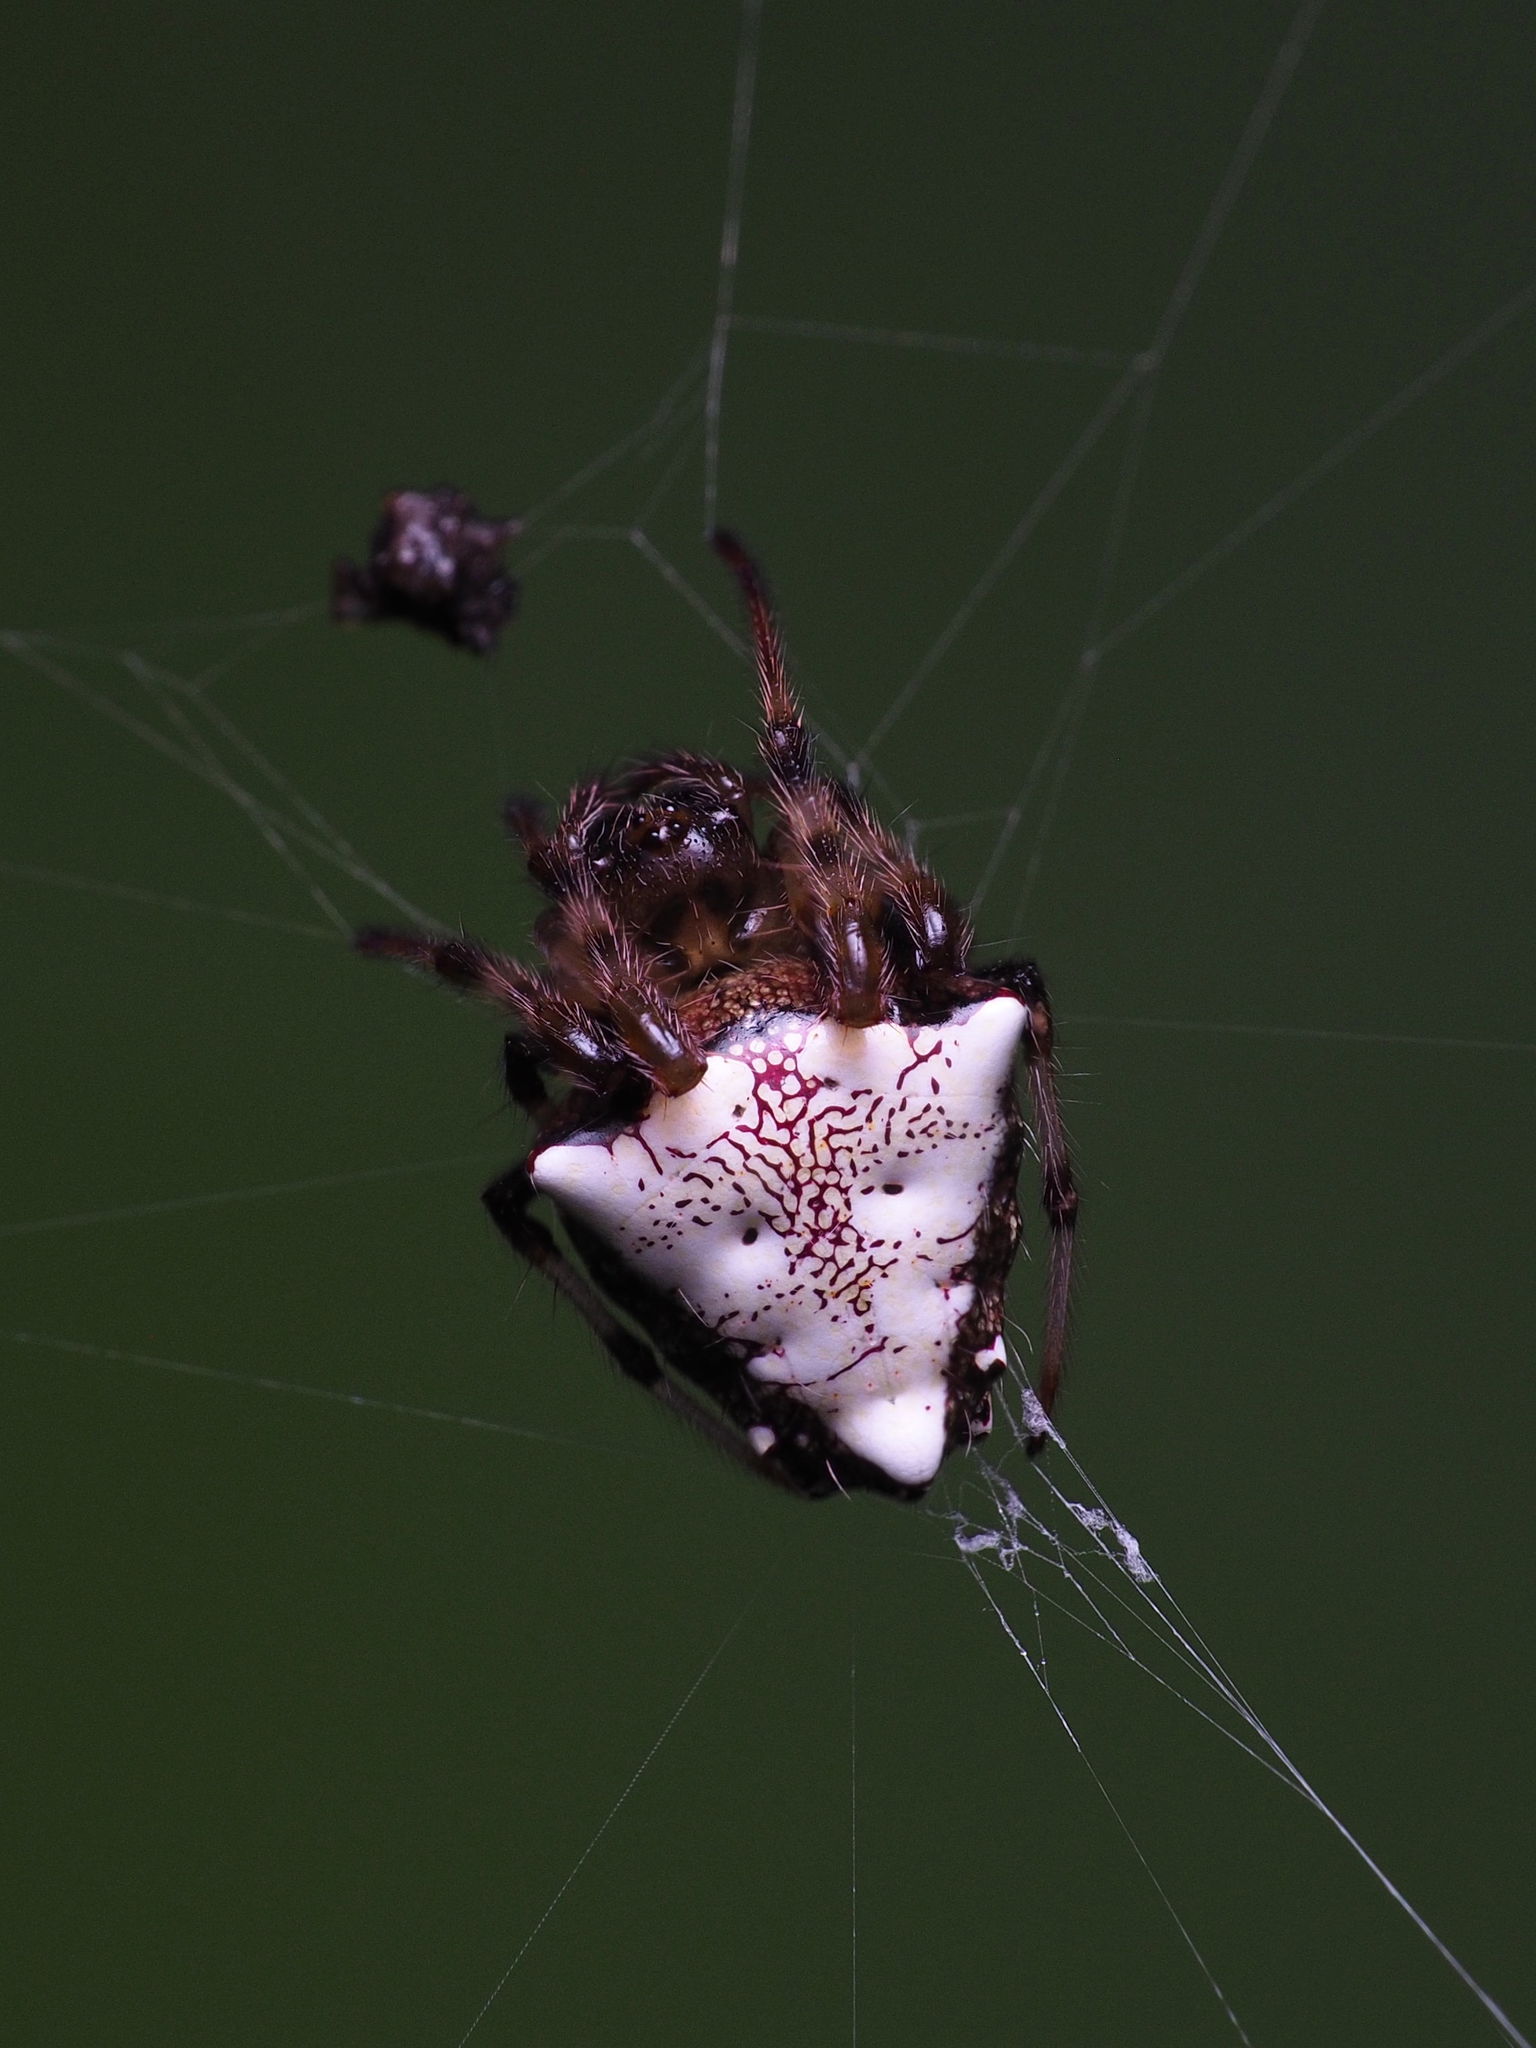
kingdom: Animalia
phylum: Arthropoda
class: Arachnida
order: Araneae
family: Araneidae
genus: Verrucosa
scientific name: Verrucosa arenata
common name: Orb weavers
